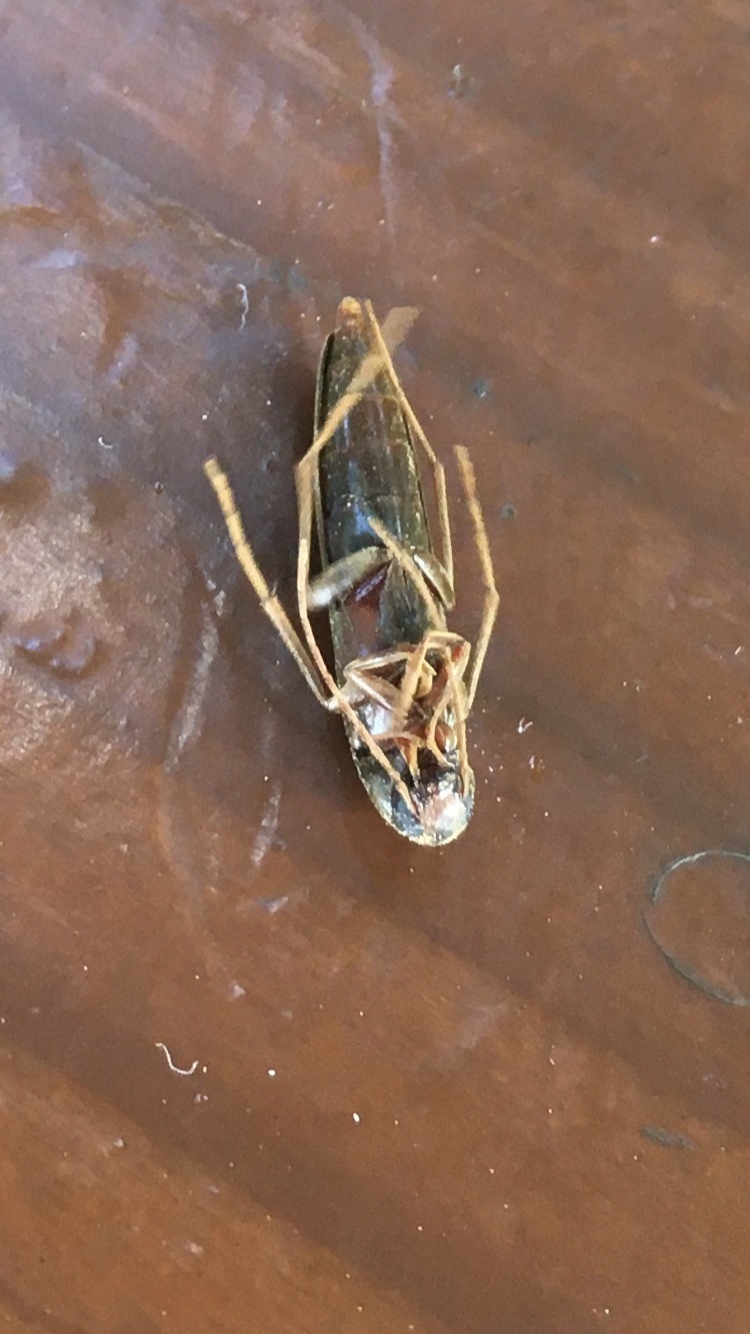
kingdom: Animalia
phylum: Arthropoda
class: Insecta
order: Coleoptera
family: Melandryidae
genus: Serropalpus
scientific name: Serropalpus barbatus
